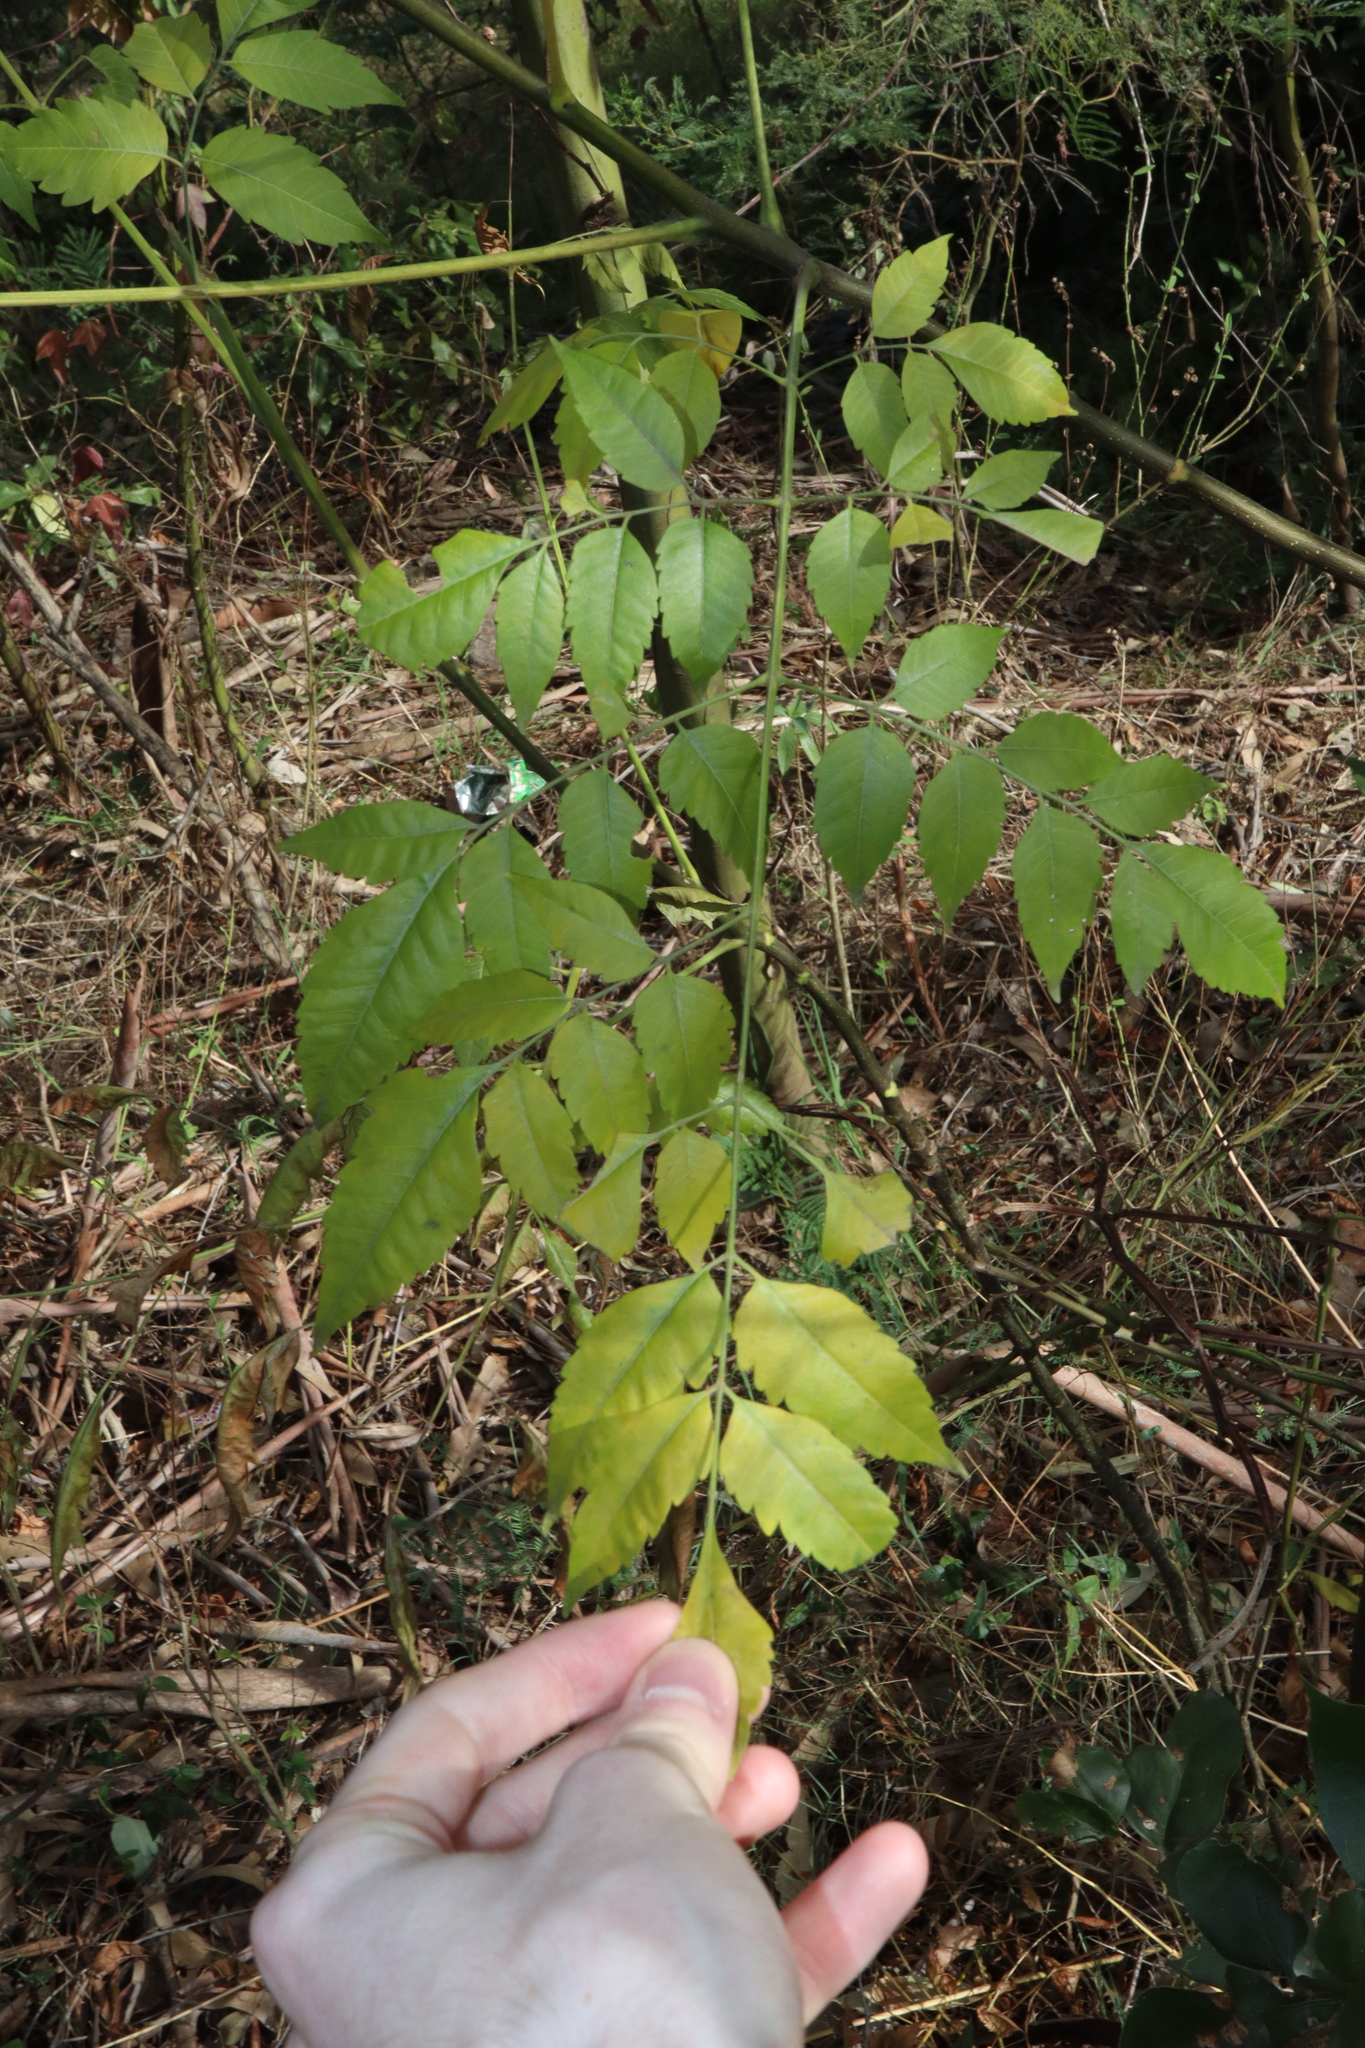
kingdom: Plantae
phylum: Tracheophyta
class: Magnoliopsida
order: Sapindales
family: Meliaceae
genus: Melia
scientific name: Melia azedarach
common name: Chinaberrytree
